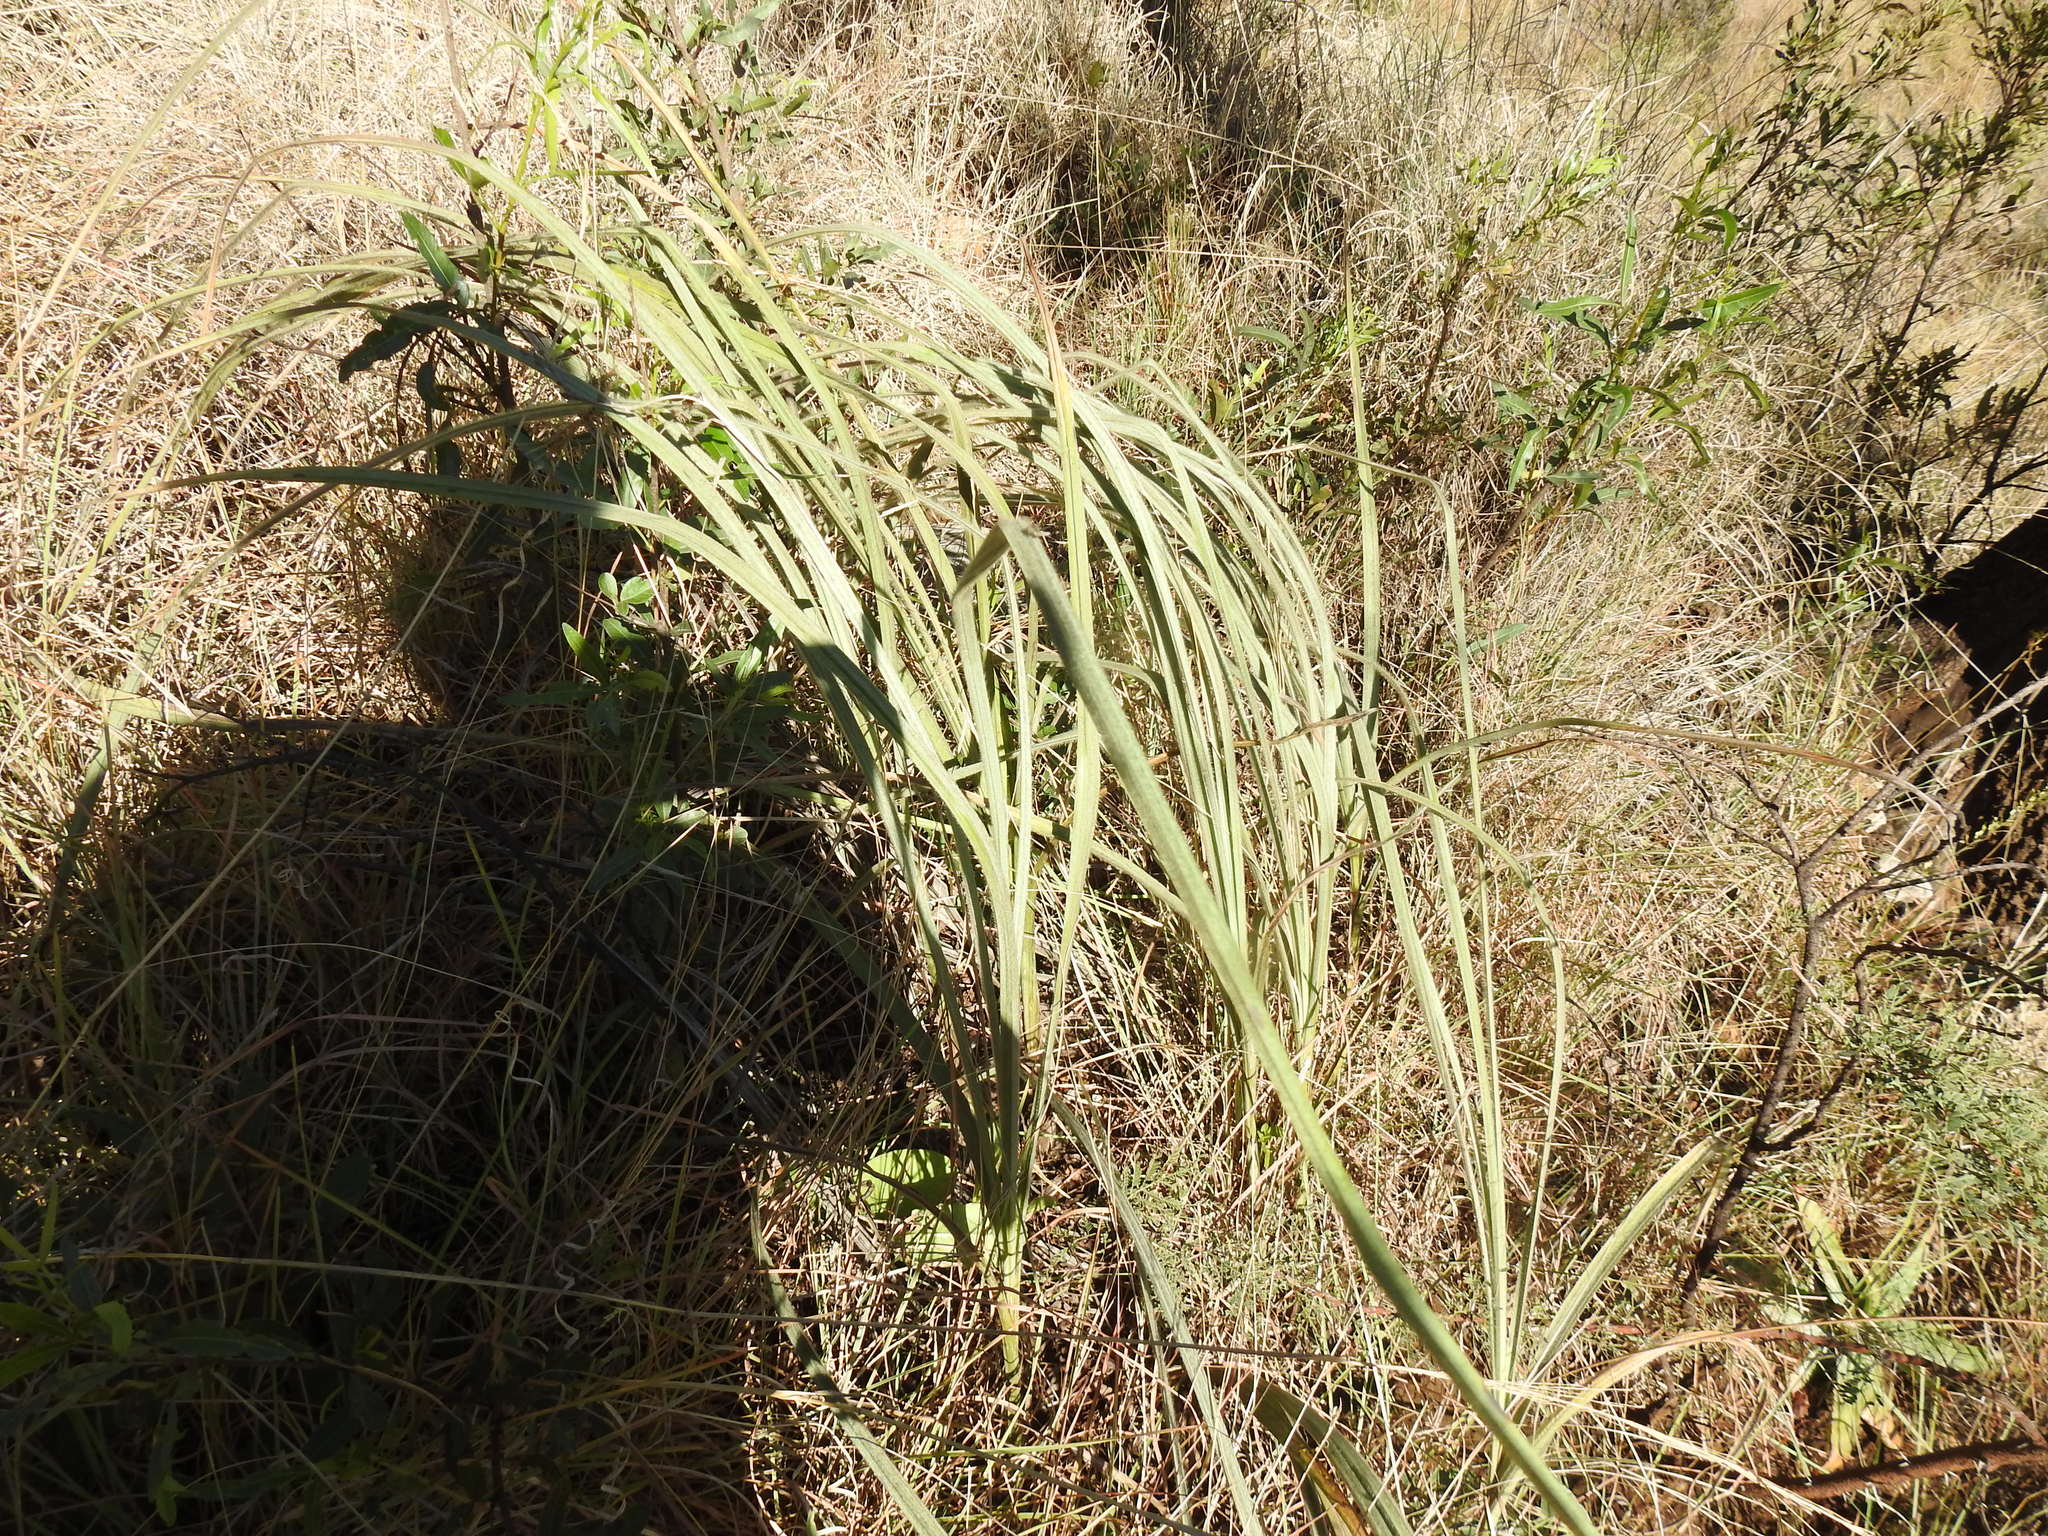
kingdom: Plantae
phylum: Tracheophyta
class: Liliopsida
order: Asparagales
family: Hypoxidaceae
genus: Hypoxis
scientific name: Hypoxis rigidula
